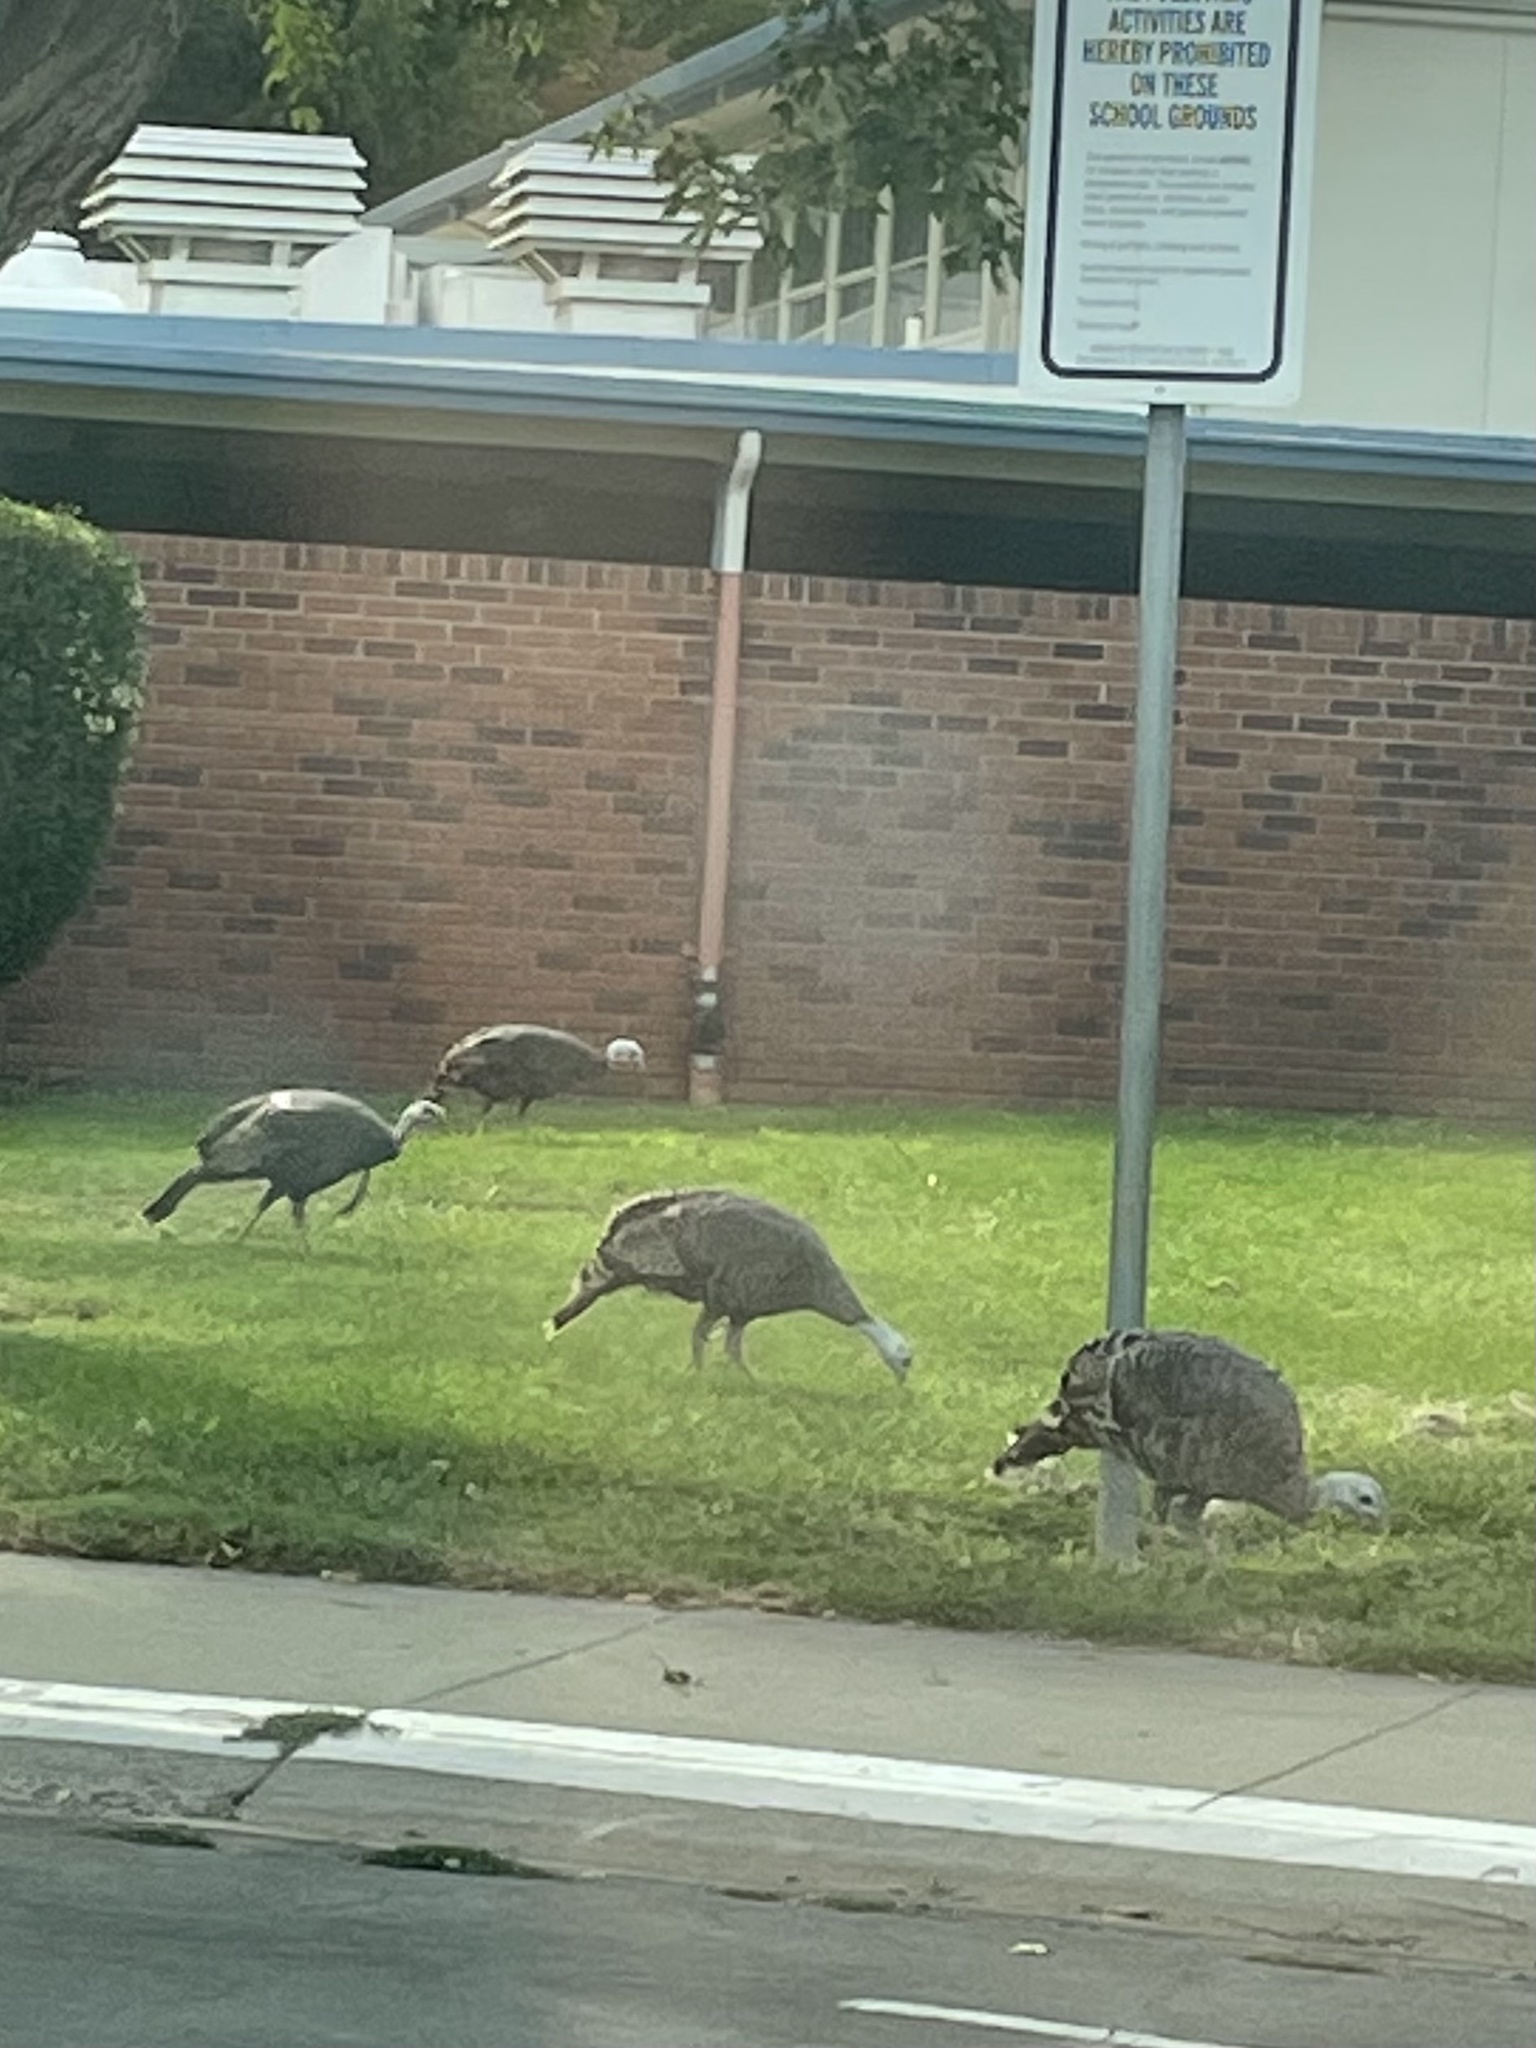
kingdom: Animalia
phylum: Chordata
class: Aves
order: Galliformes
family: Phasianidae
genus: Meleagris
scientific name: Meleagris gallopavo
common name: Wild turkey
